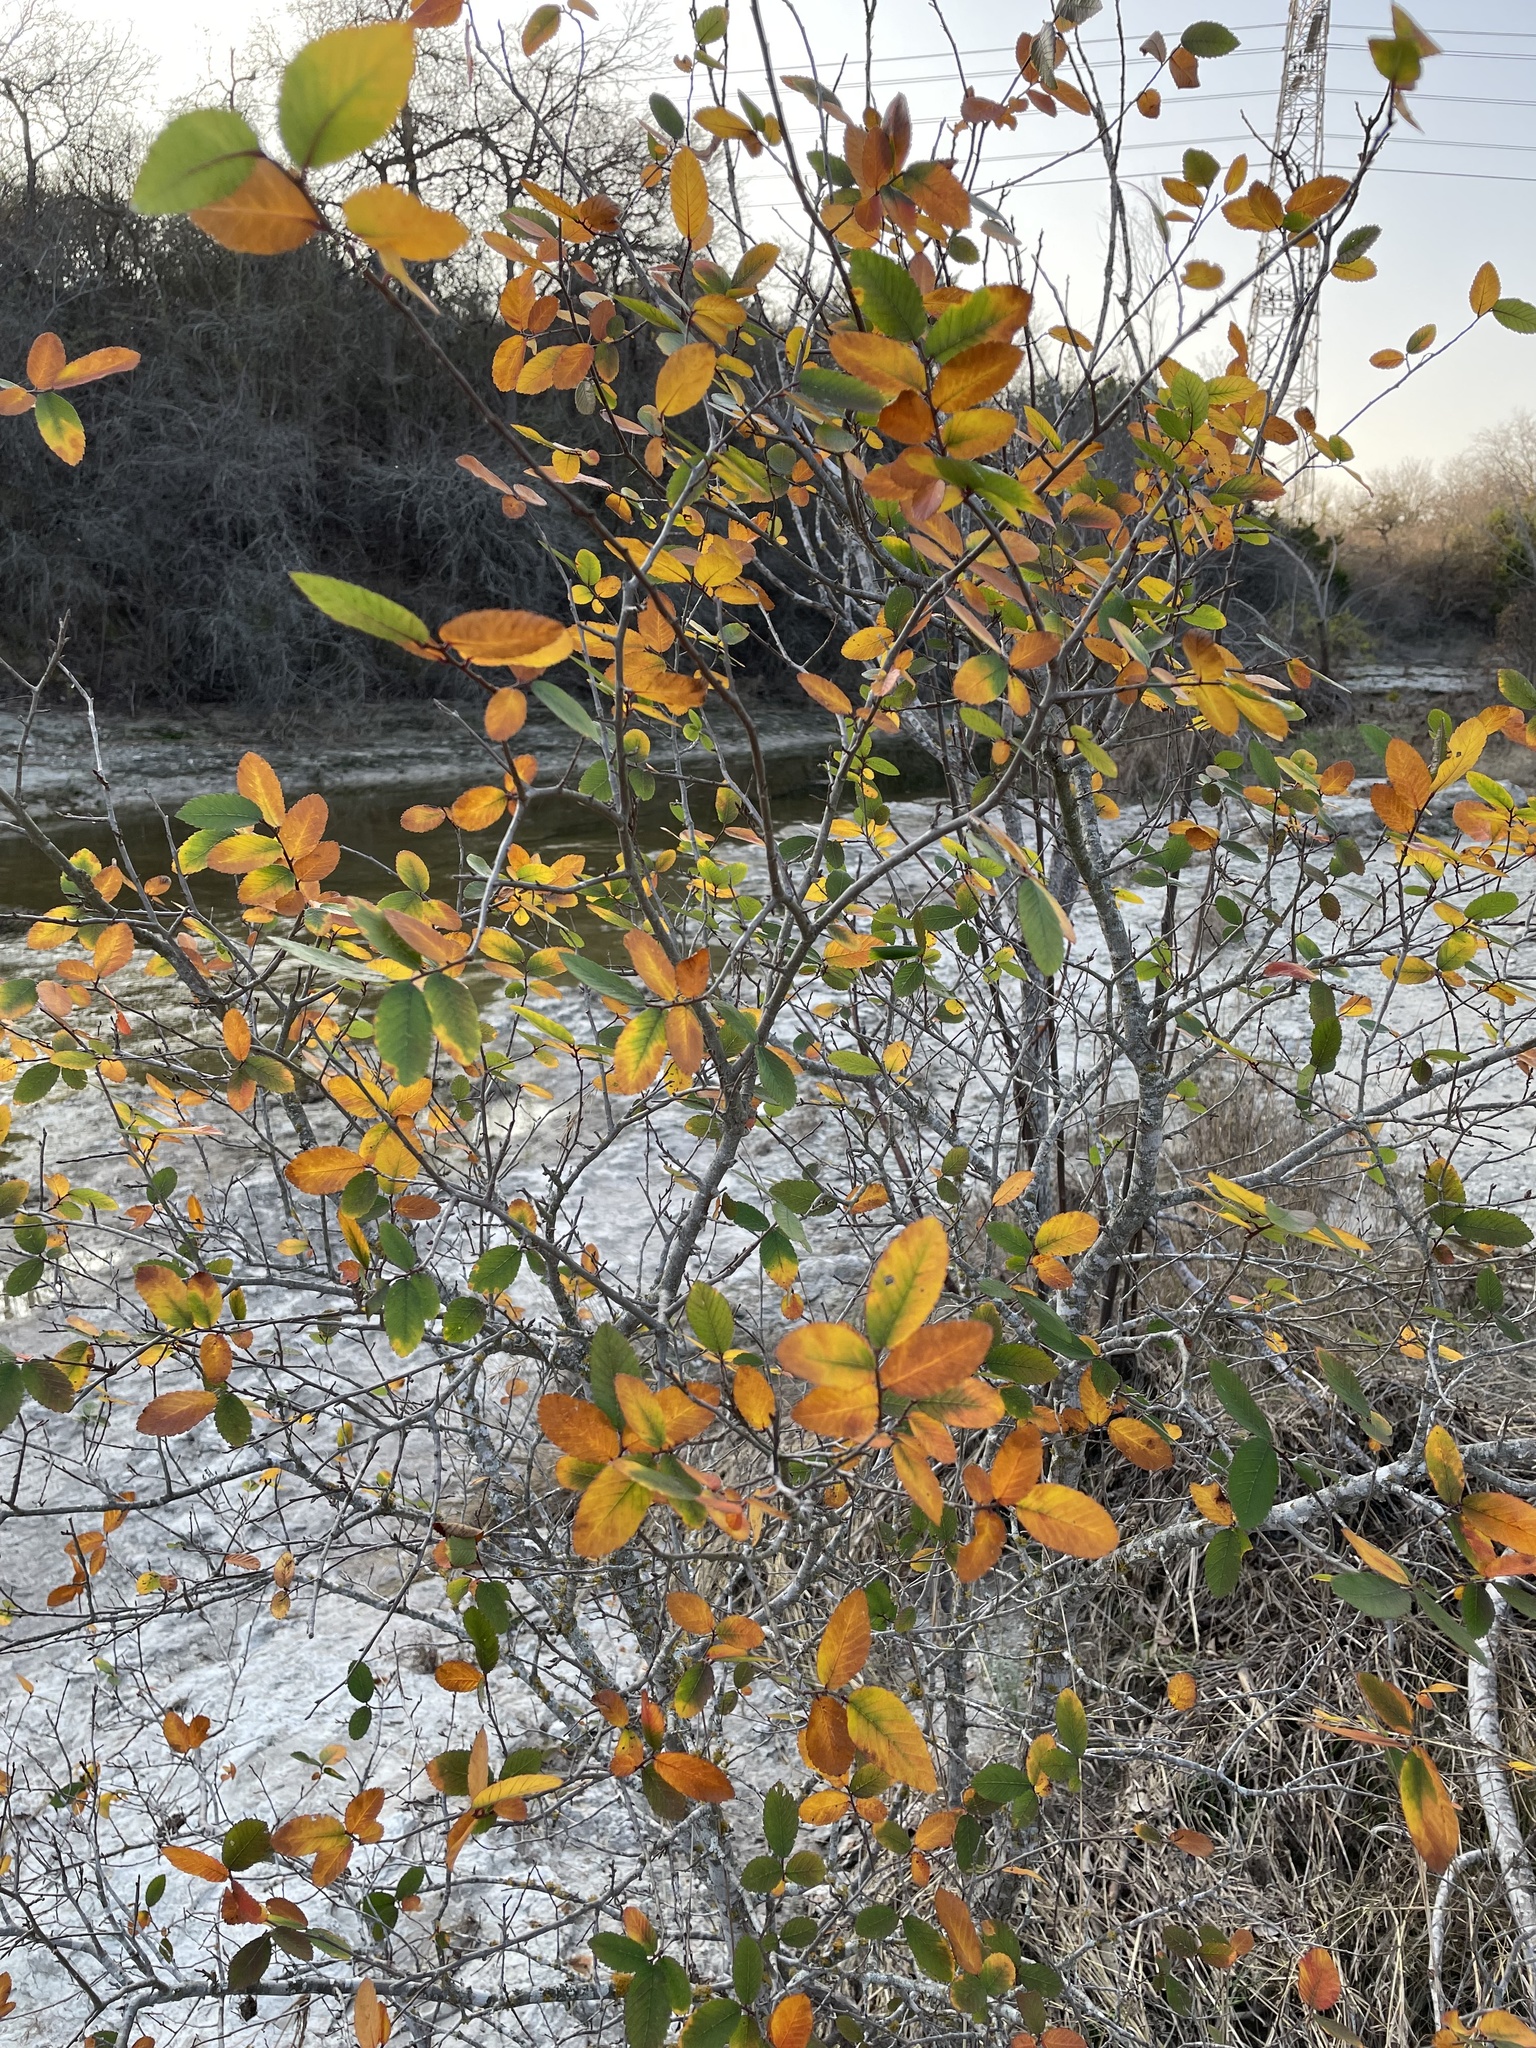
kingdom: Plantae
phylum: Tracheophyta
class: Magnoliopsida
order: Rosales
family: Ulmaceae
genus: Ulmus
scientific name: Ulmus crassifolia
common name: Basket elm
